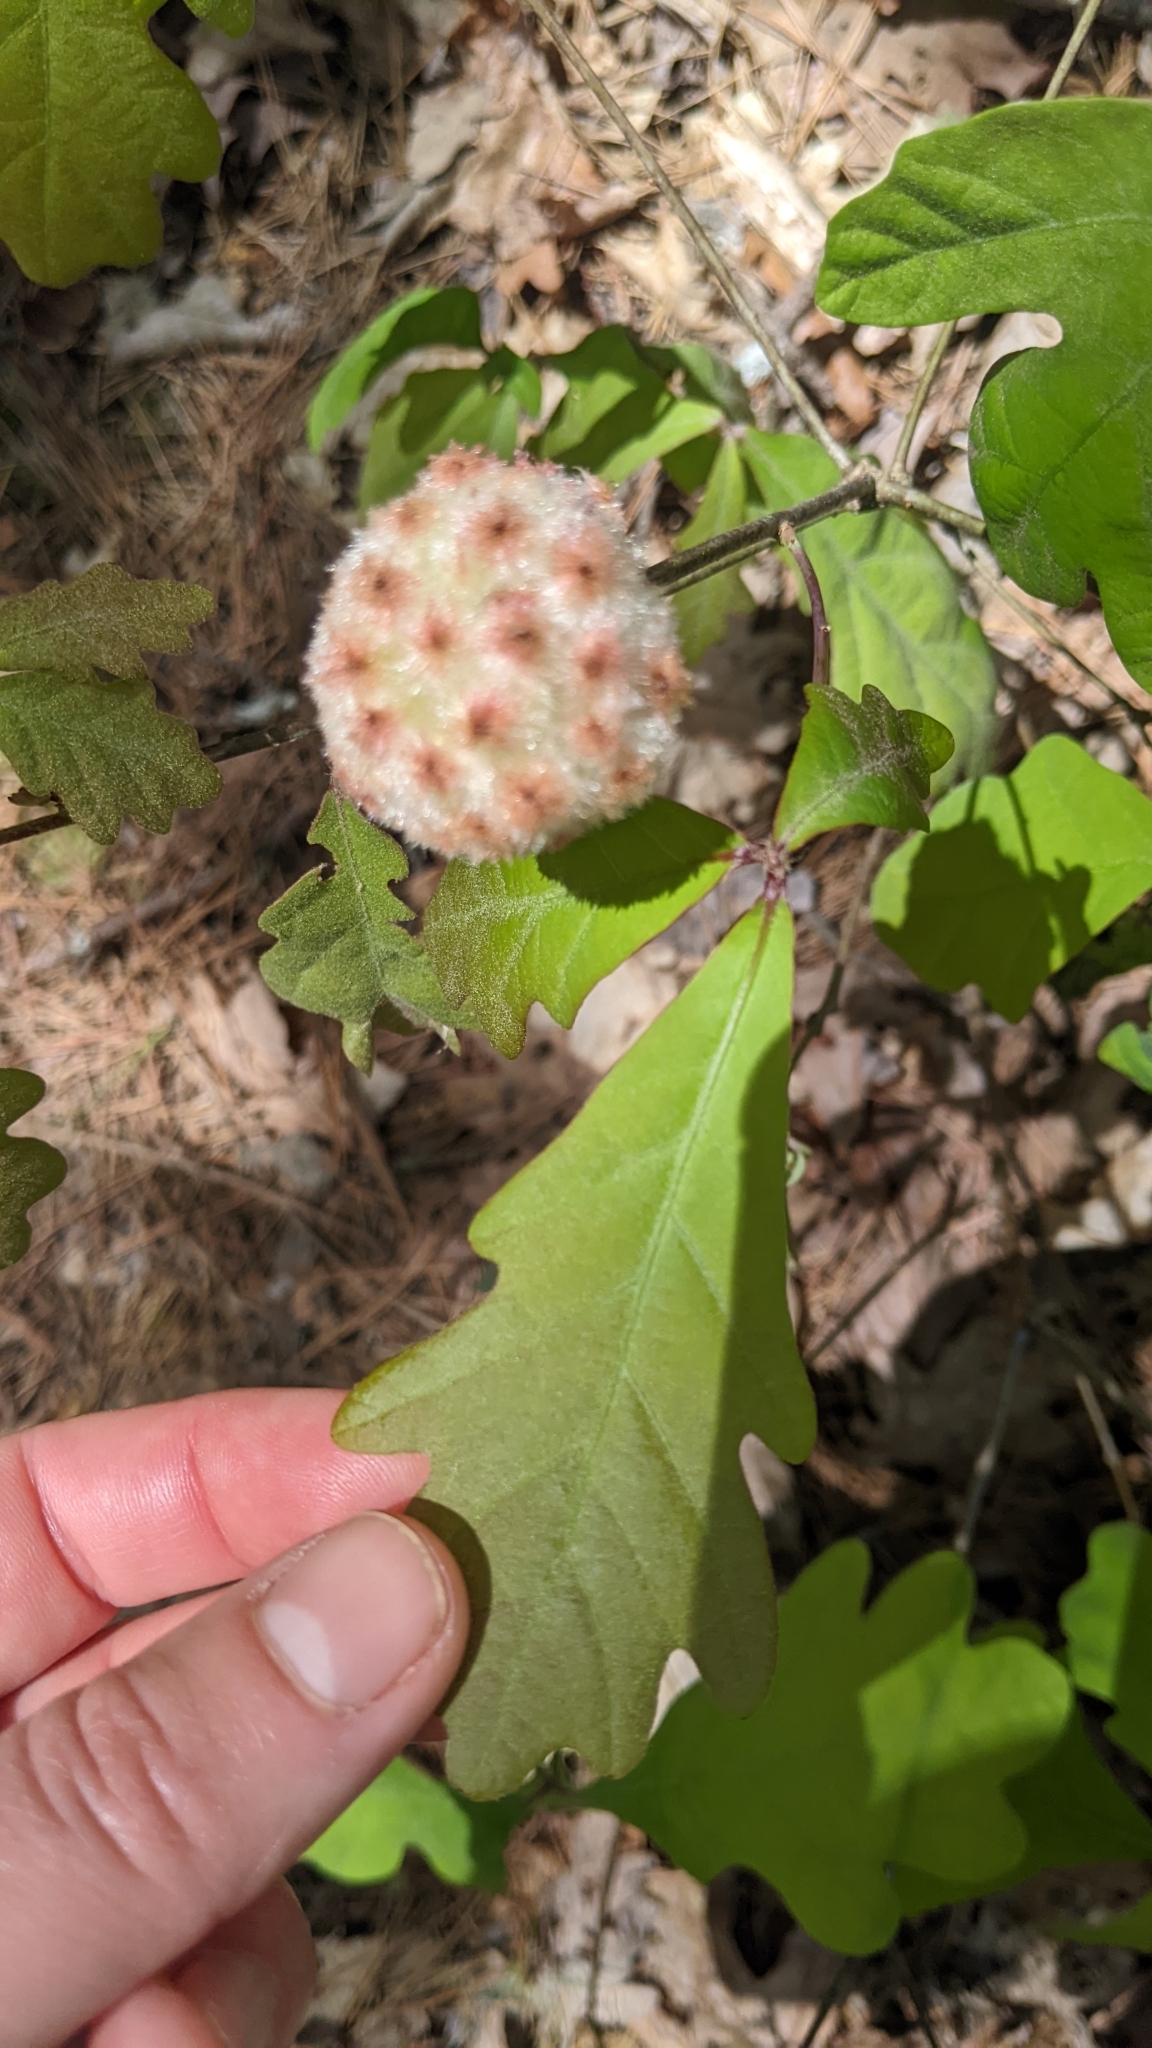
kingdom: Animalia
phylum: Arthropoda
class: Insecta
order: Hymenoptera
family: Cynipidae
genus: Callirhytis
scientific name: Callirhytis
